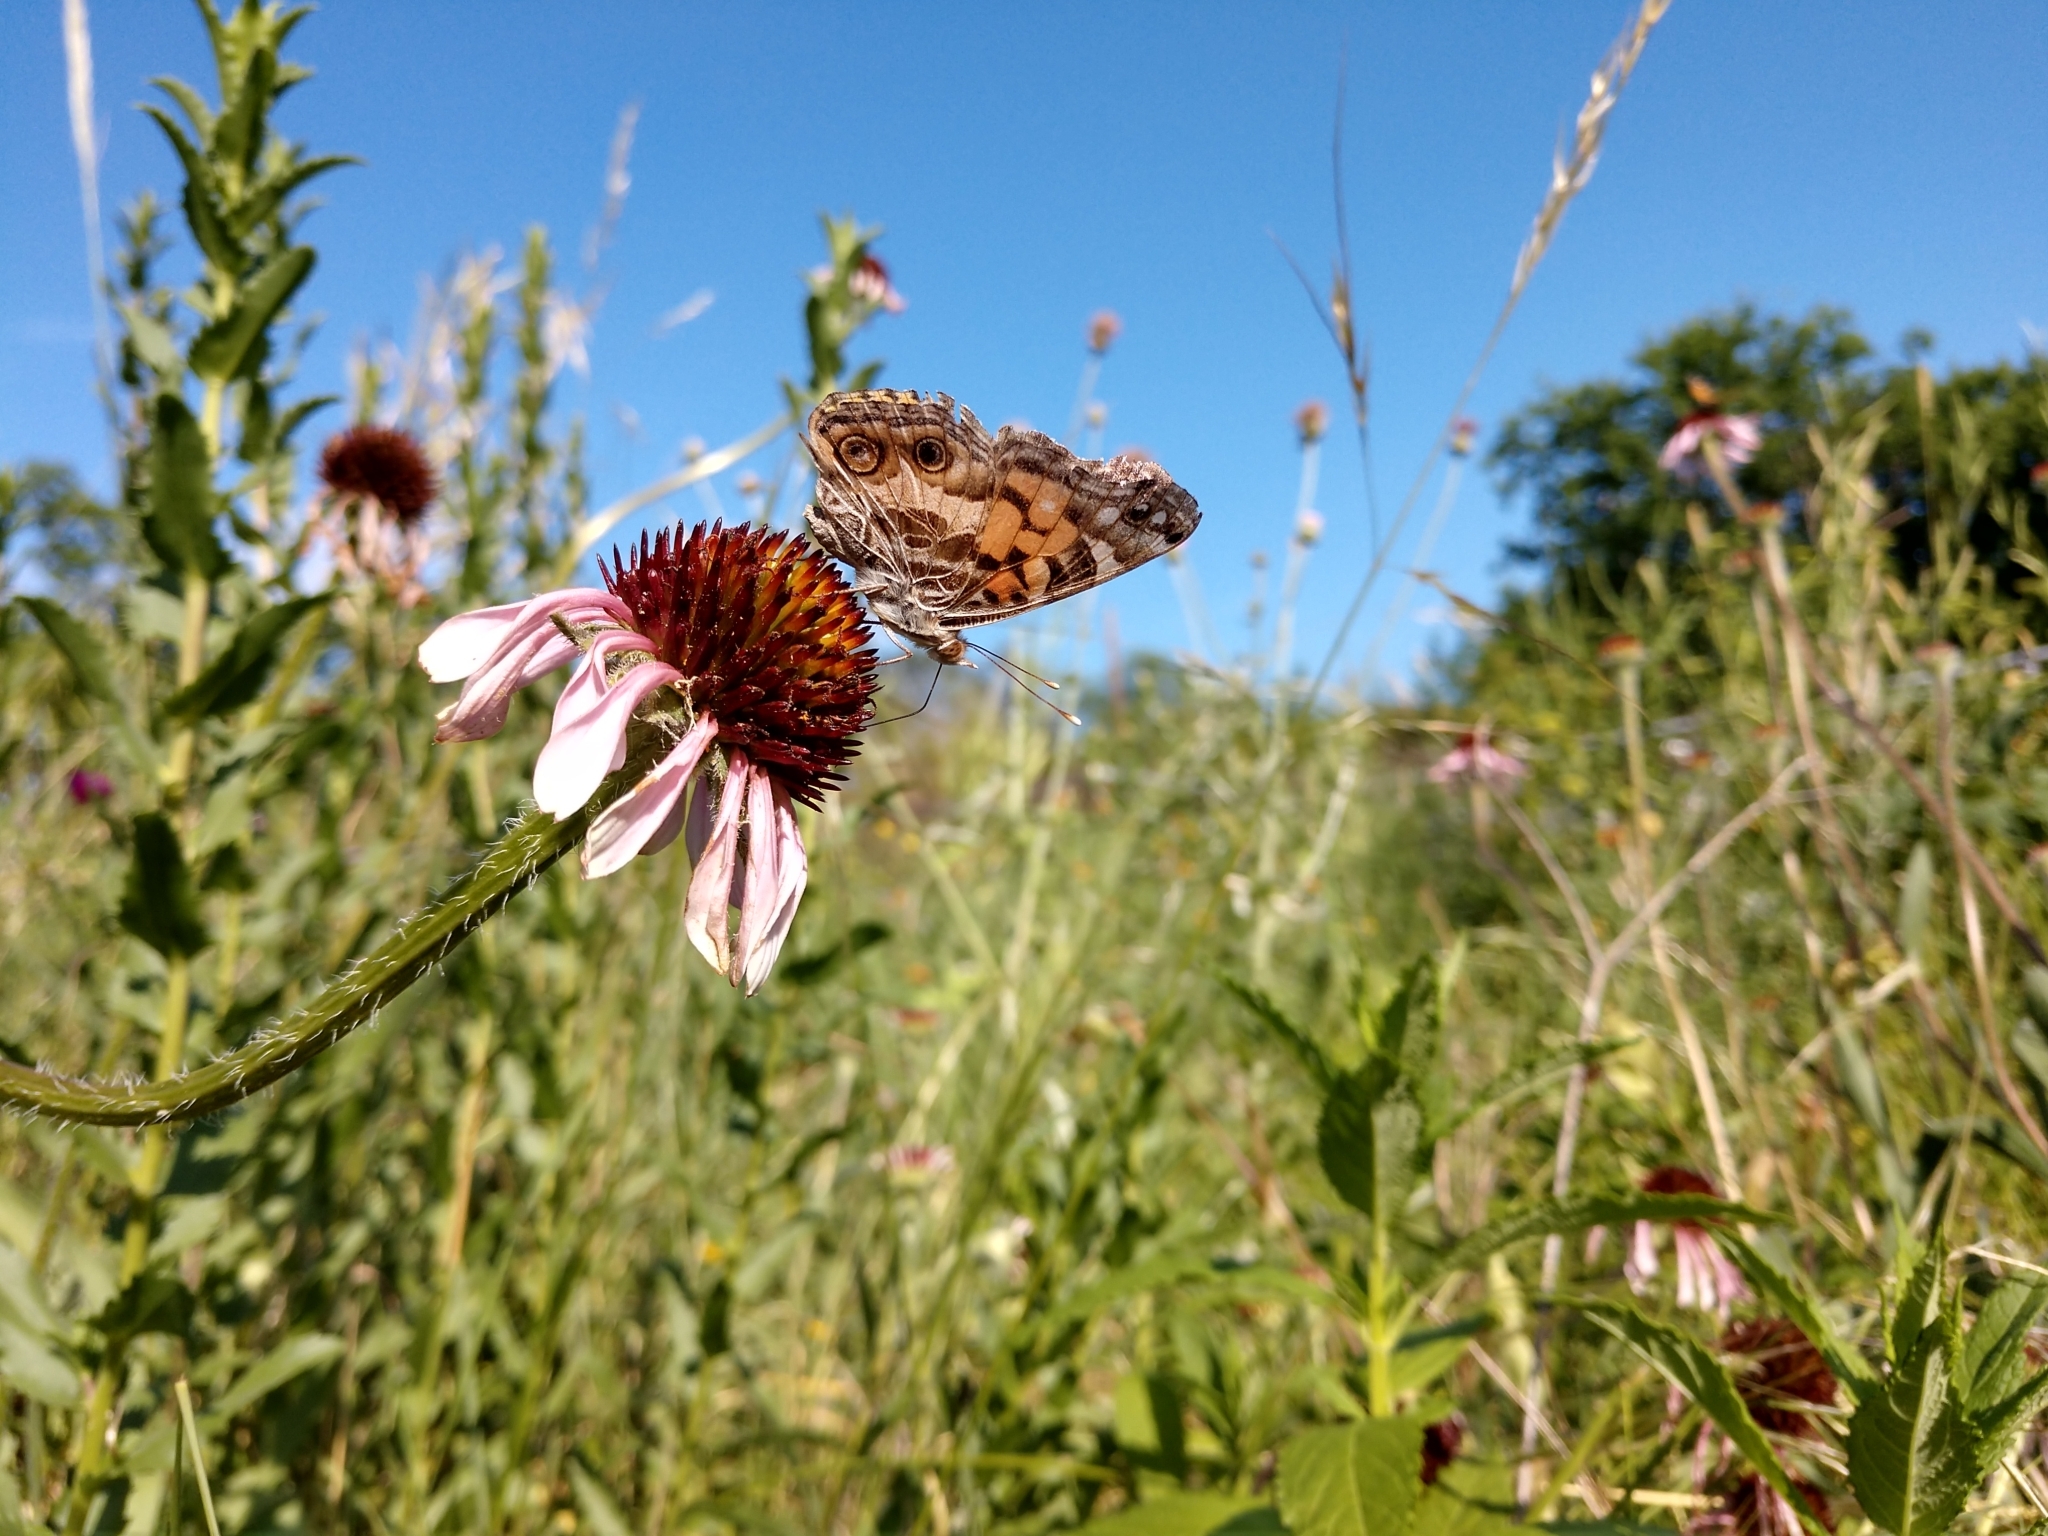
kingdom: Animalia
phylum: Arthropoda
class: Insecta
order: Lepidoptera
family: Nymphalidae
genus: Vanessa
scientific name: Vanessa virginiensis
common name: American lady
